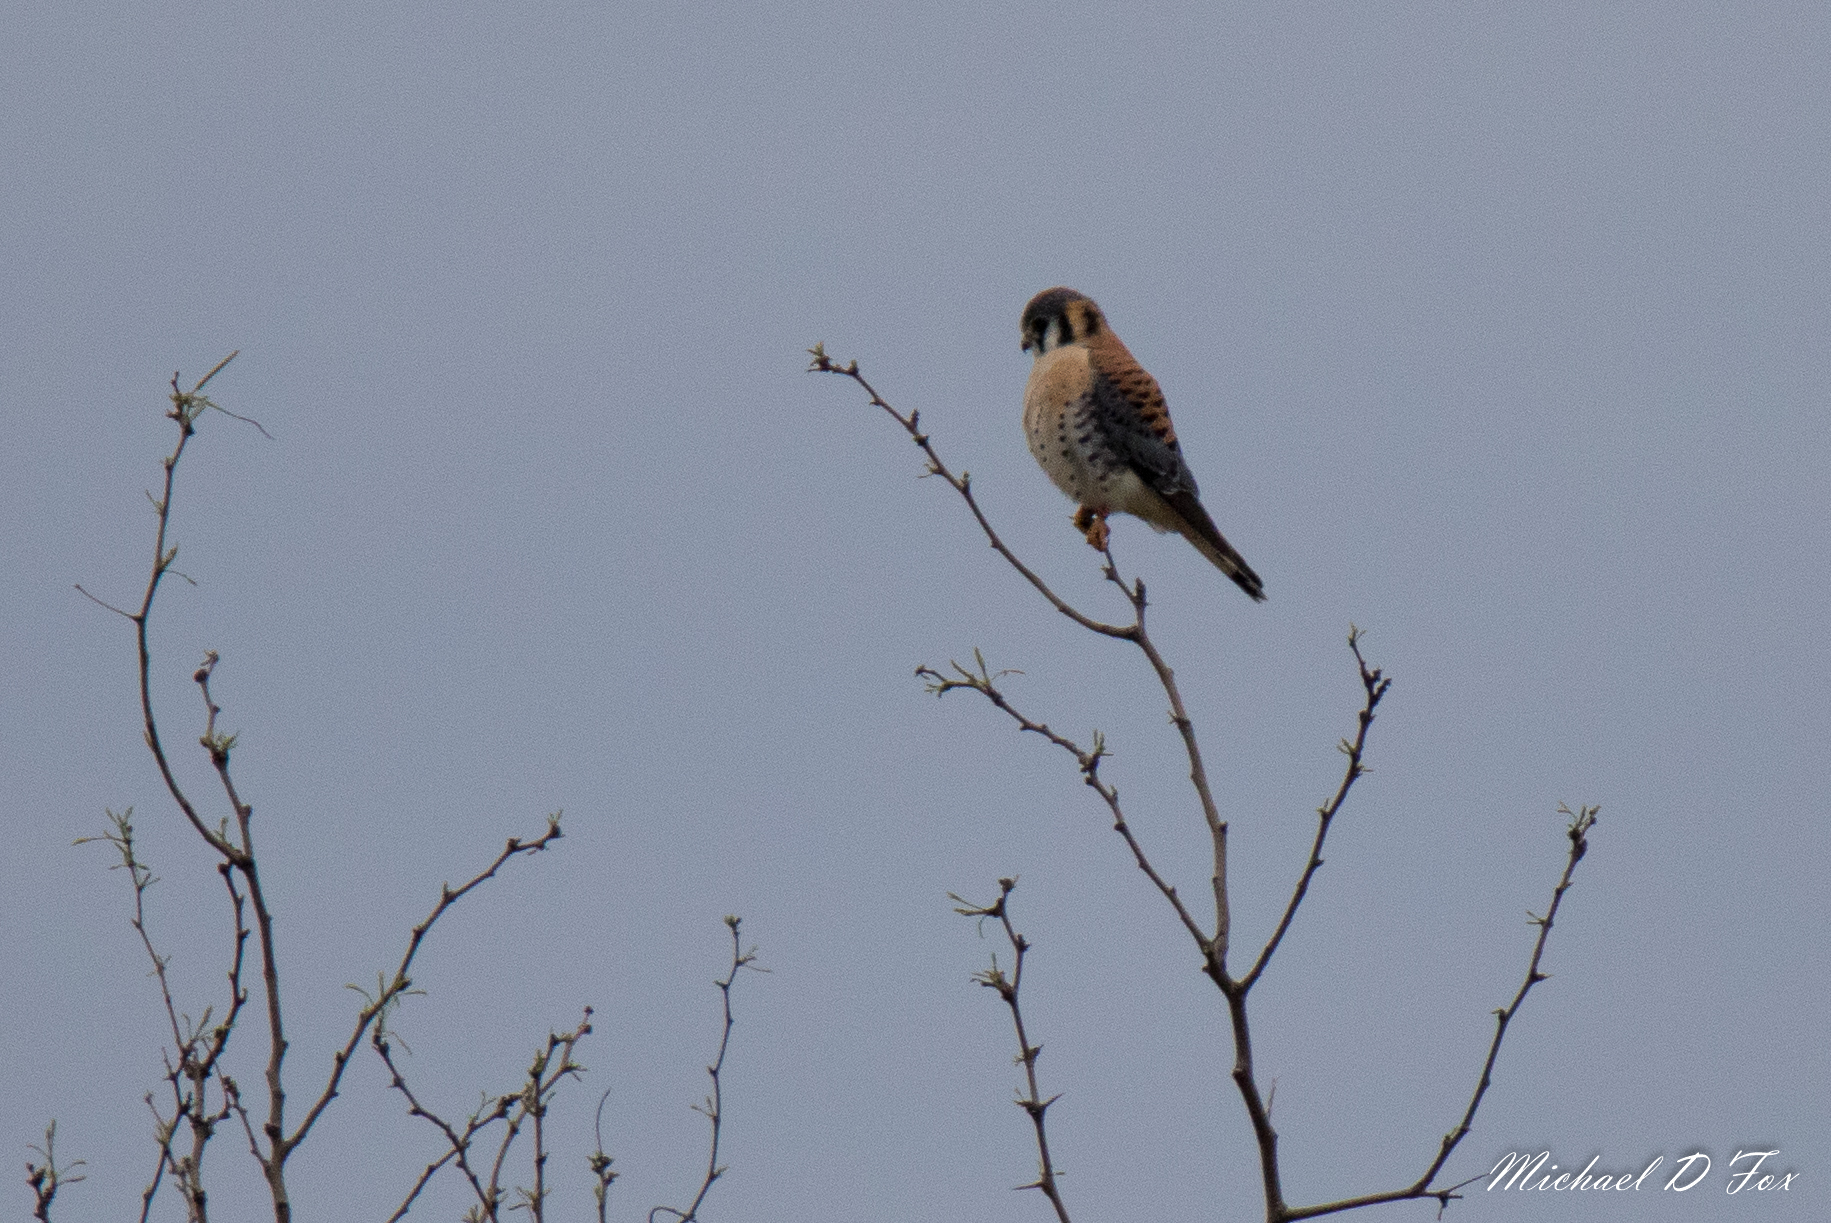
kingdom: Animalia
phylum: Chordata
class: Aves
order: Falconiformes
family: Falconidae
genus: Falco
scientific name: Falco sparverius
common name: American kestrel
